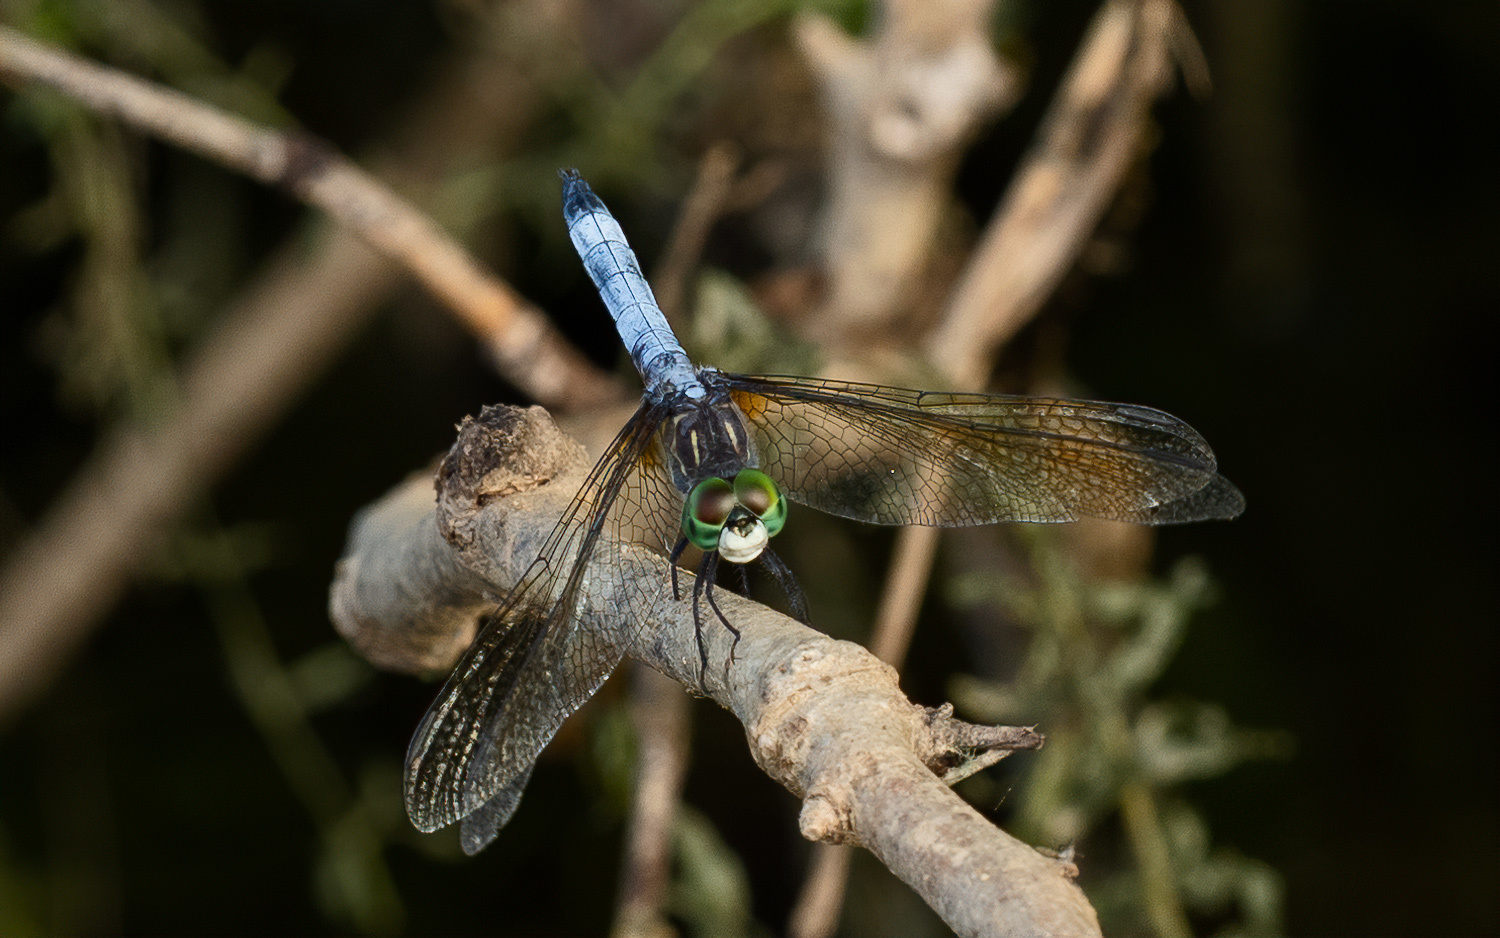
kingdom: Animalia
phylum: Arthropoda
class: Insecta
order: Odonata
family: Libellulidae
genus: Pachydiplax
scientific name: Pachydiplax longipennis
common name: Blue dasher
